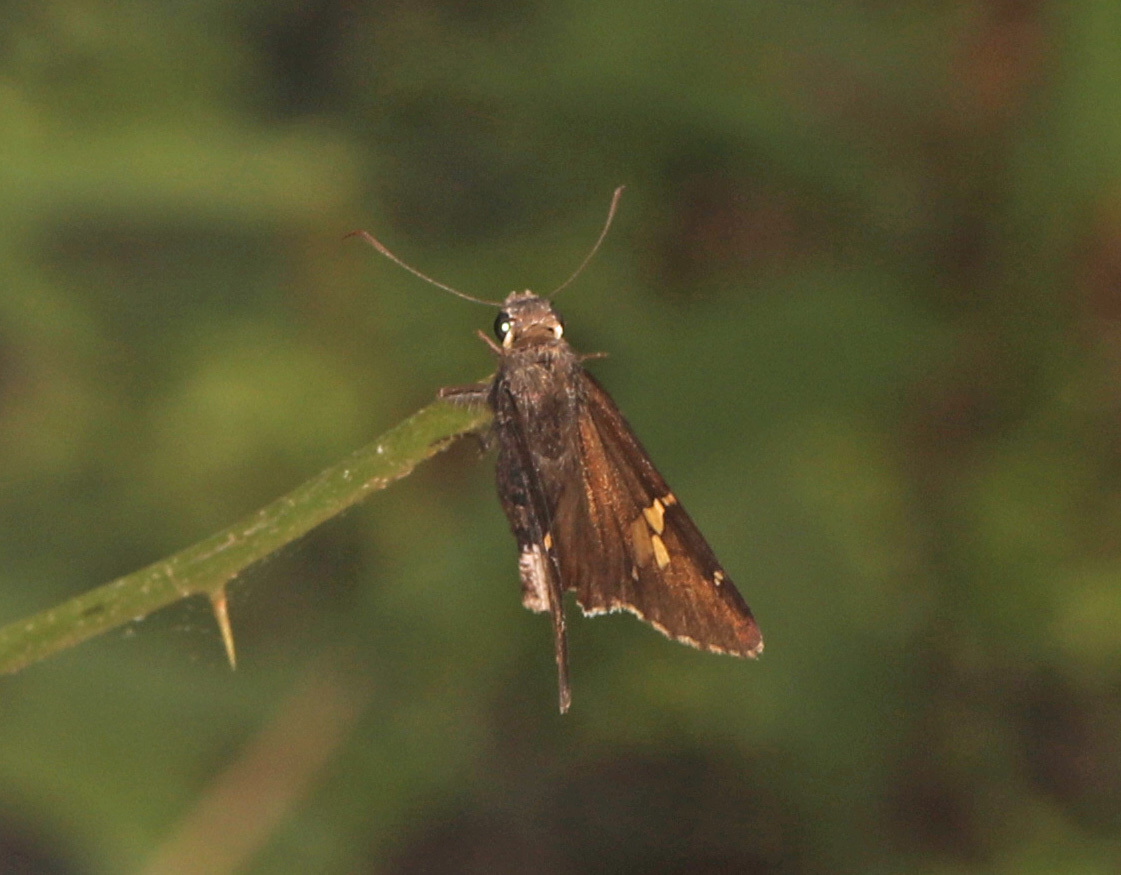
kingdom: Animalia
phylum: Arthropoda
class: Insecta
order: Lepidoptera
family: Hesperiidae
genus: Thorybes
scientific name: Thorybes lyciades
